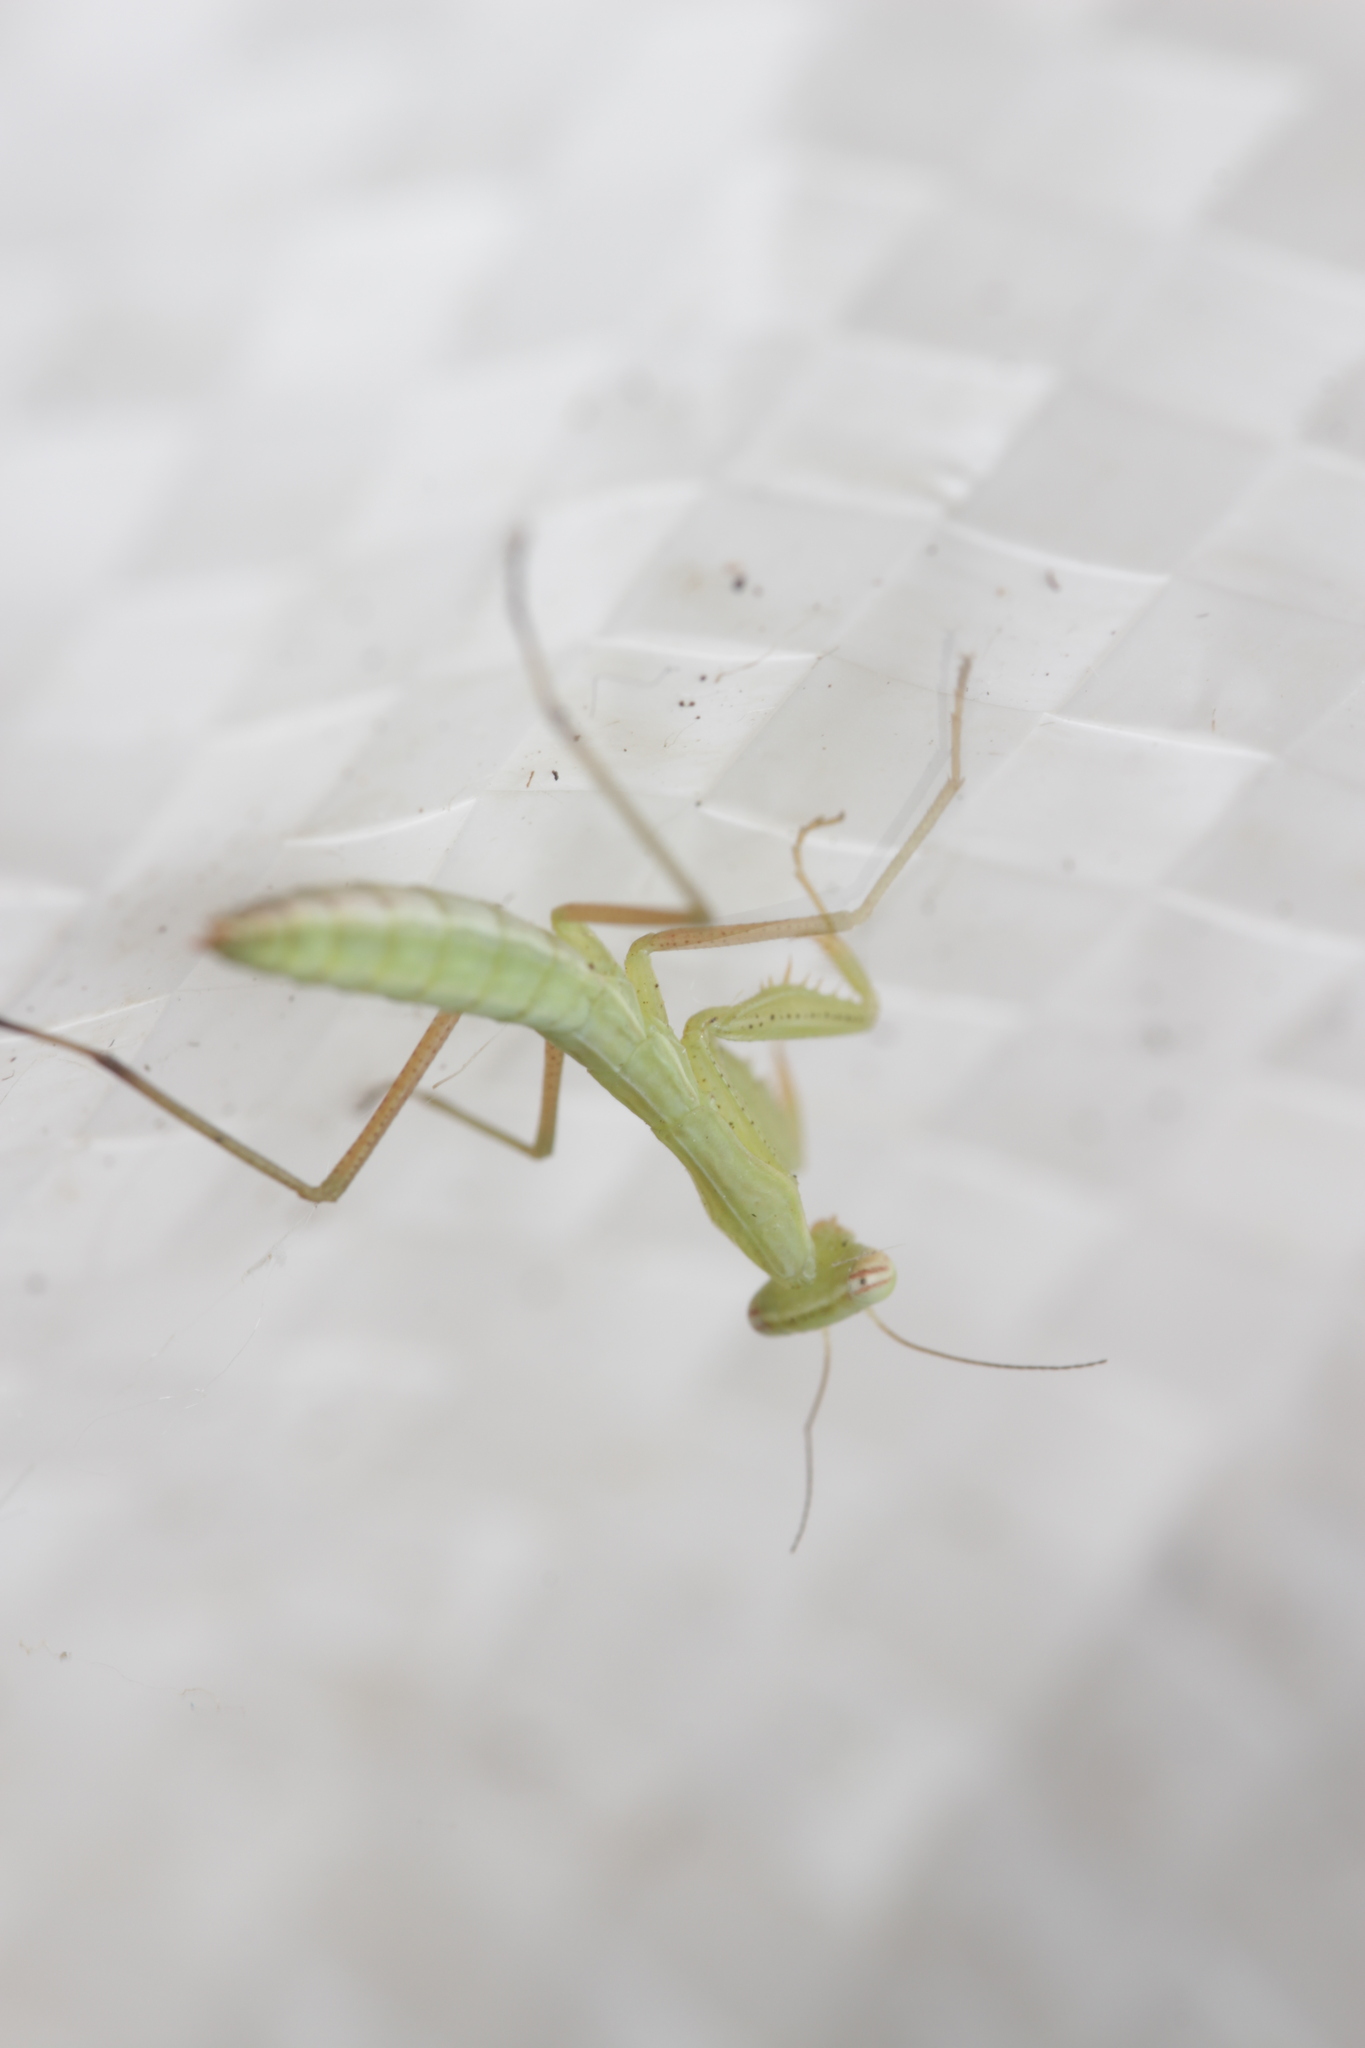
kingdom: Animalia
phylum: Arthropoda
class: Insecta
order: Mantodea
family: Mantidae
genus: Mantis
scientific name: Mantis religiosa
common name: Praying mantis
